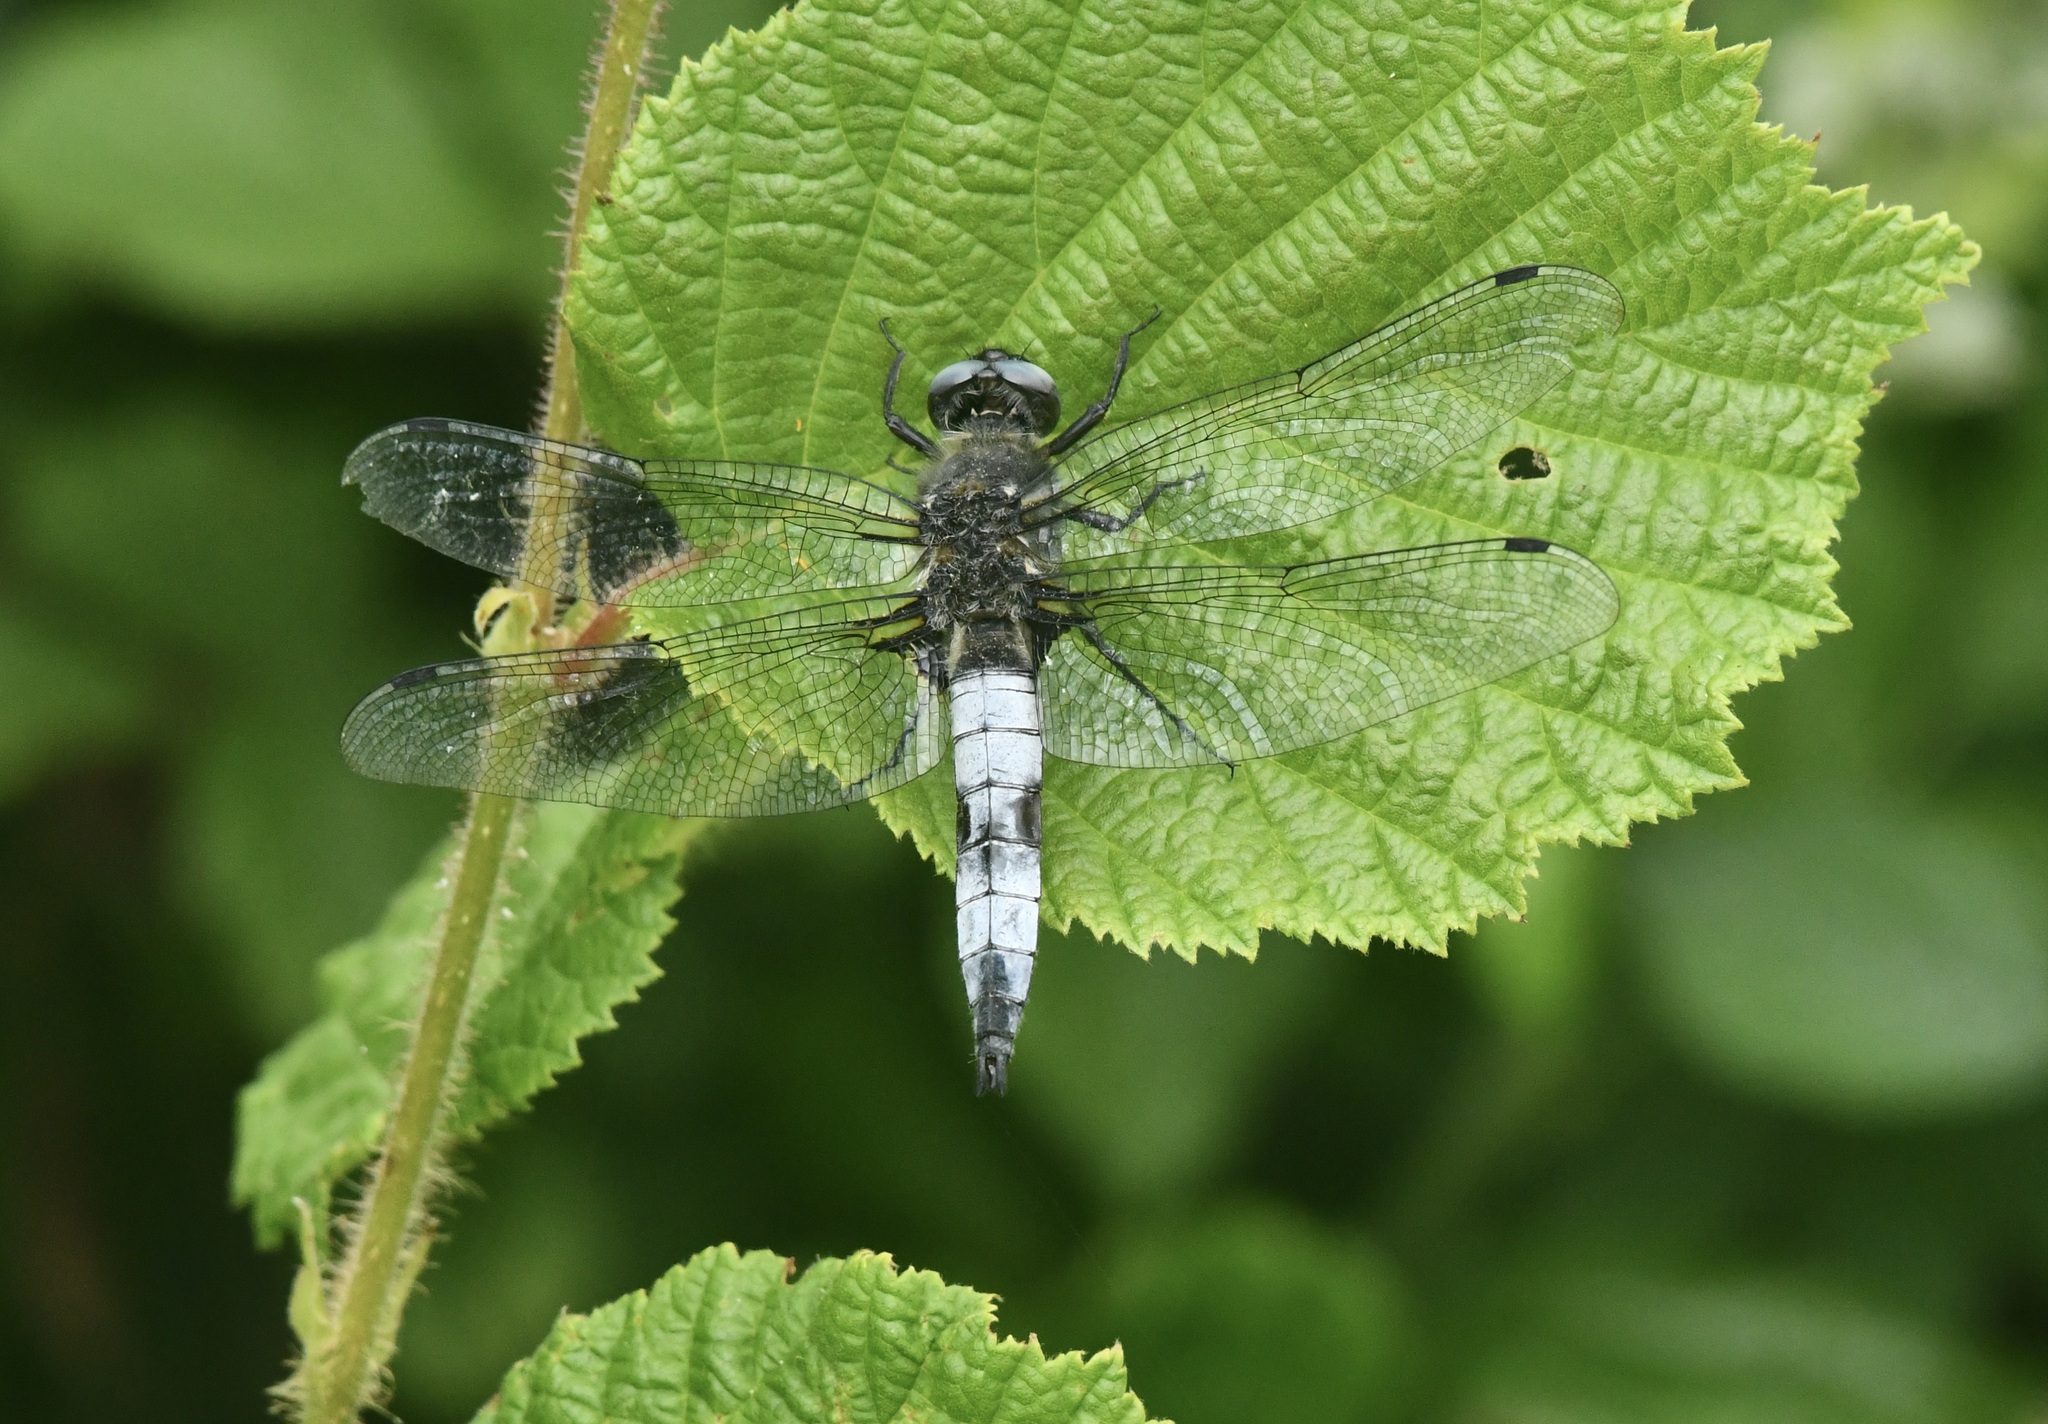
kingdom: Animalia
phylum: Arthropoda
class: Insecta
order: Odonata
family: Libellulidae
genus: Libellula
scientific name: Libellula fulva
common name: Blue chaser
